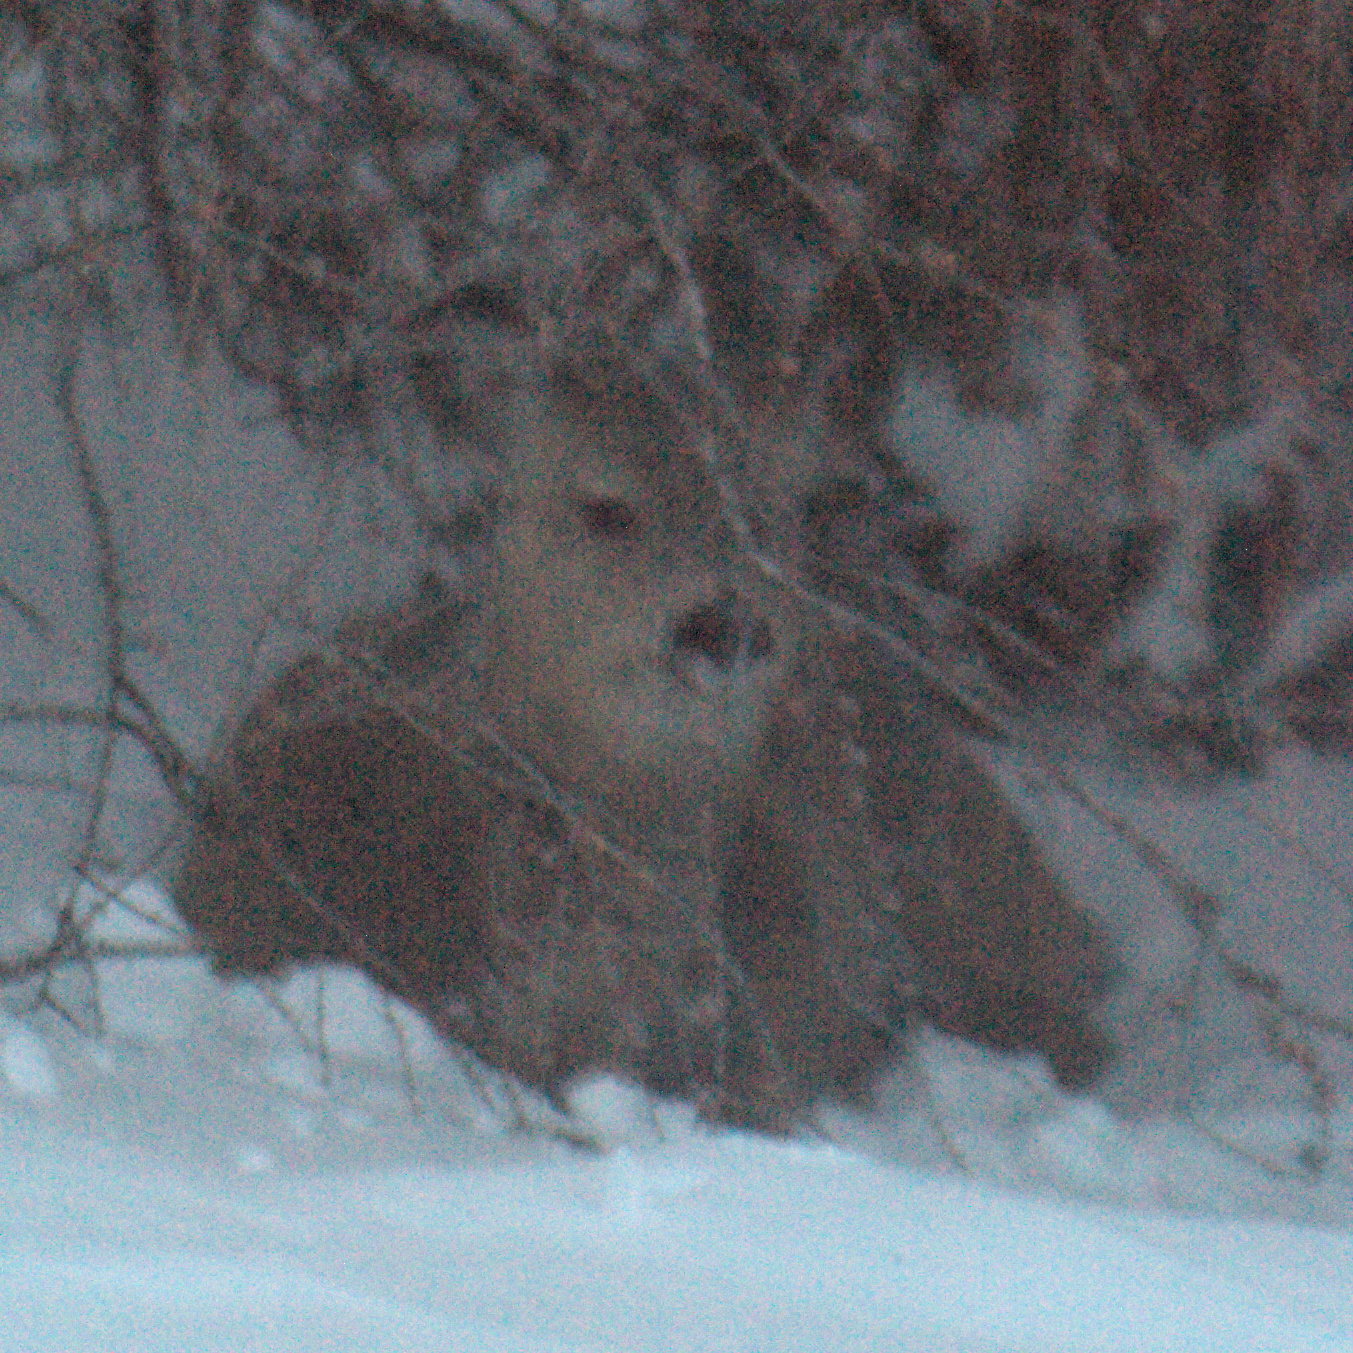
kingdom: Animalia
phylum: Chordata
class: Mammalia
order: Artiodactyla
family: Cervidae
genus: Odocoileus
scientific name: Odocoileus virginianus
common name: White-tailed deer
